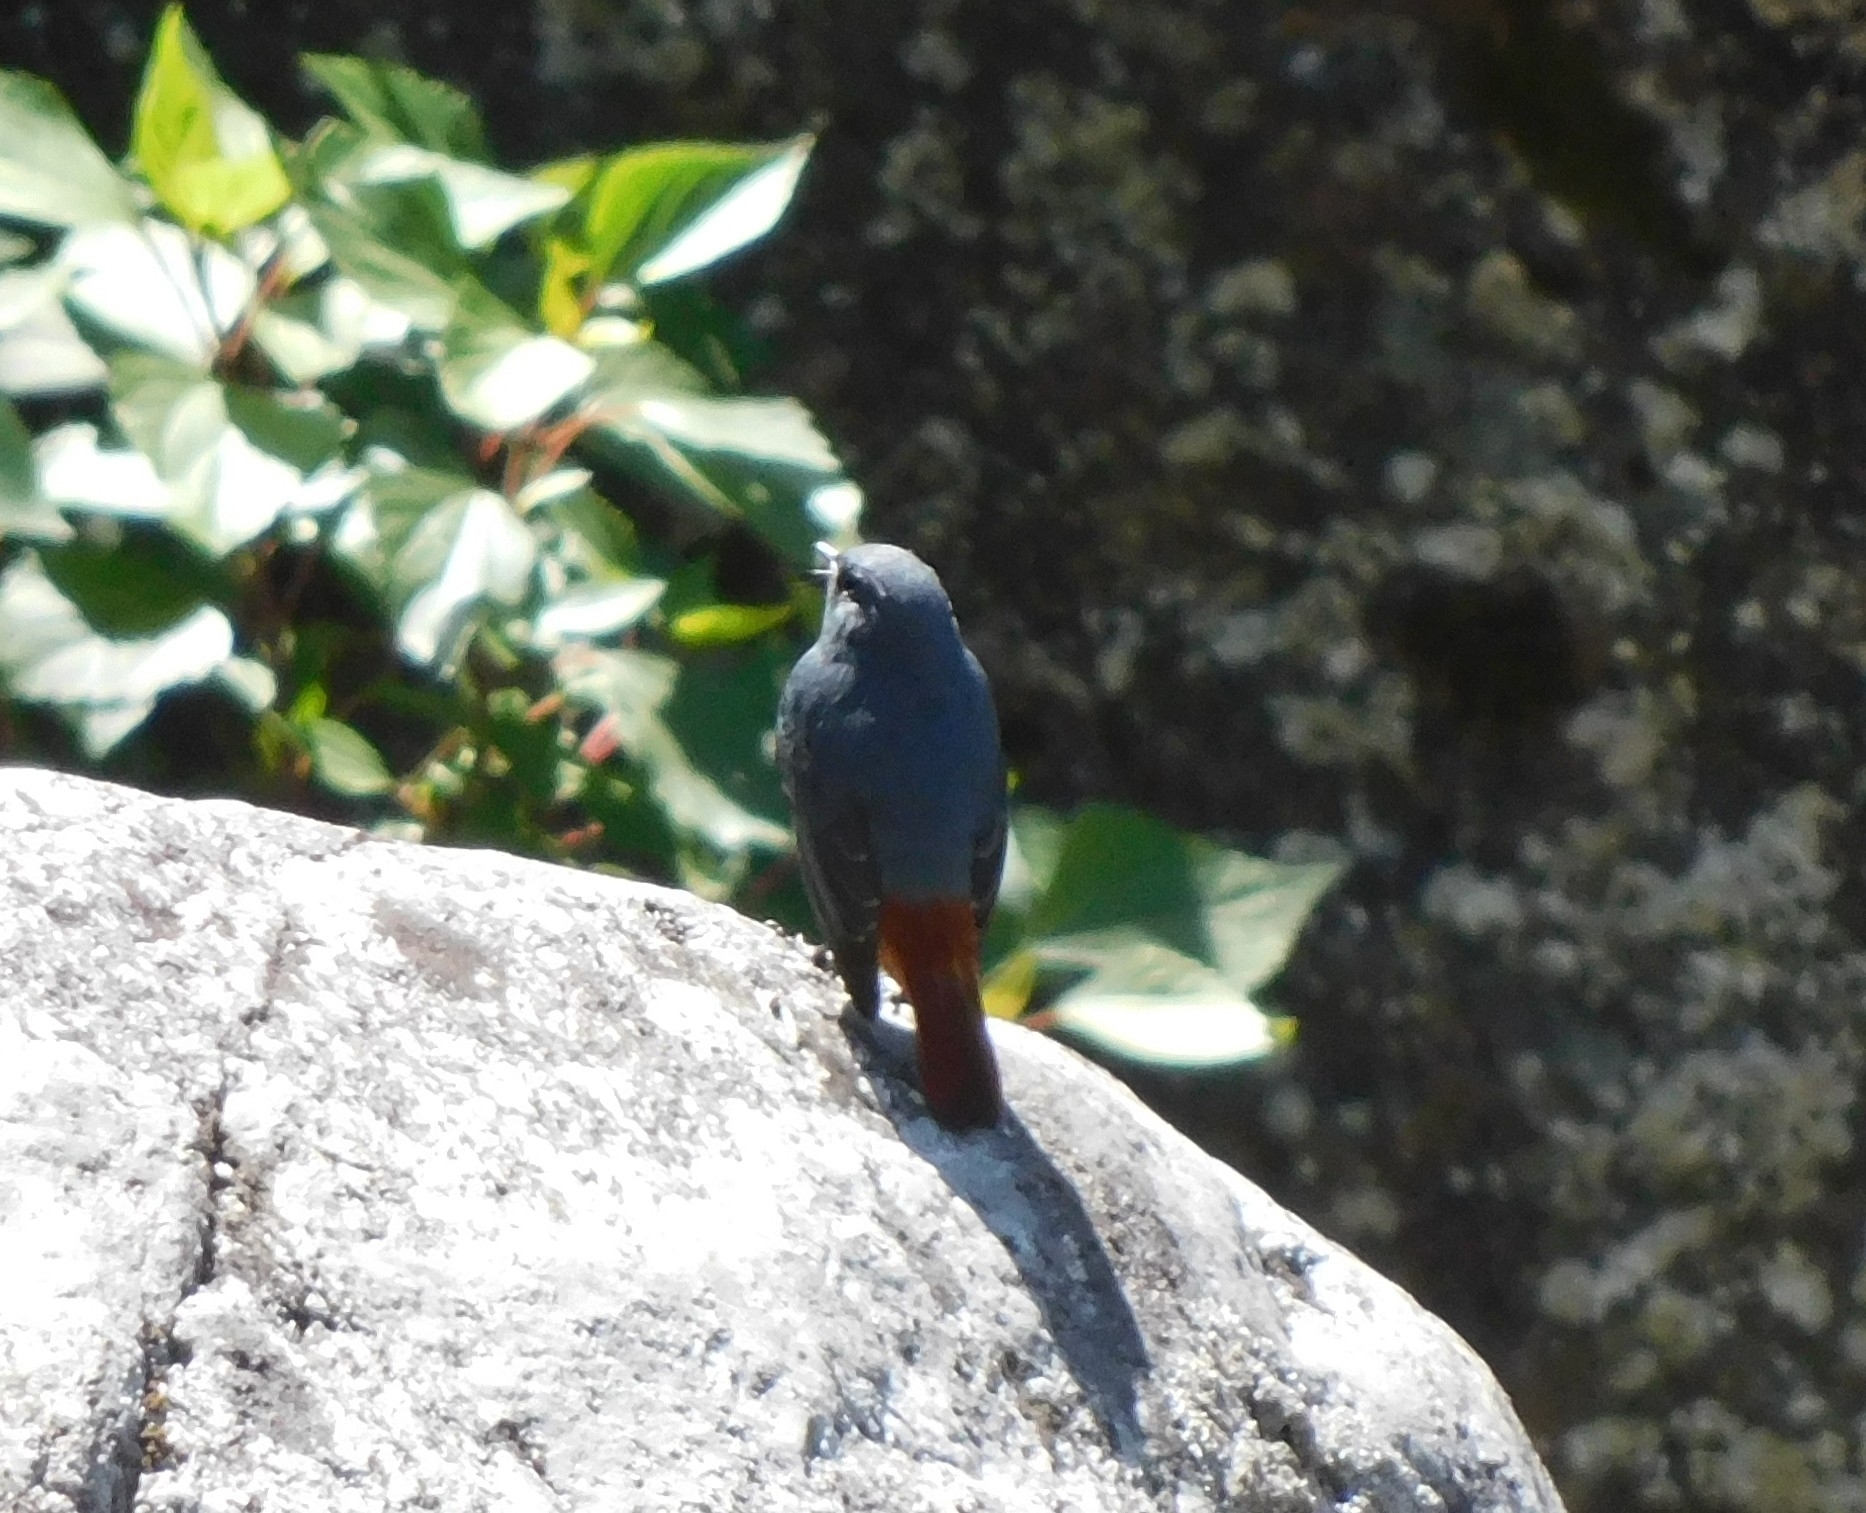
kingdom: Animalia
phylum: Chordata
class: Aves
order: Passeriformes
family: Muscicapidae
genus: Phoenicurus
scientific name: Phoenicurus fuliginosus
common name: Plumbeous water redstart
